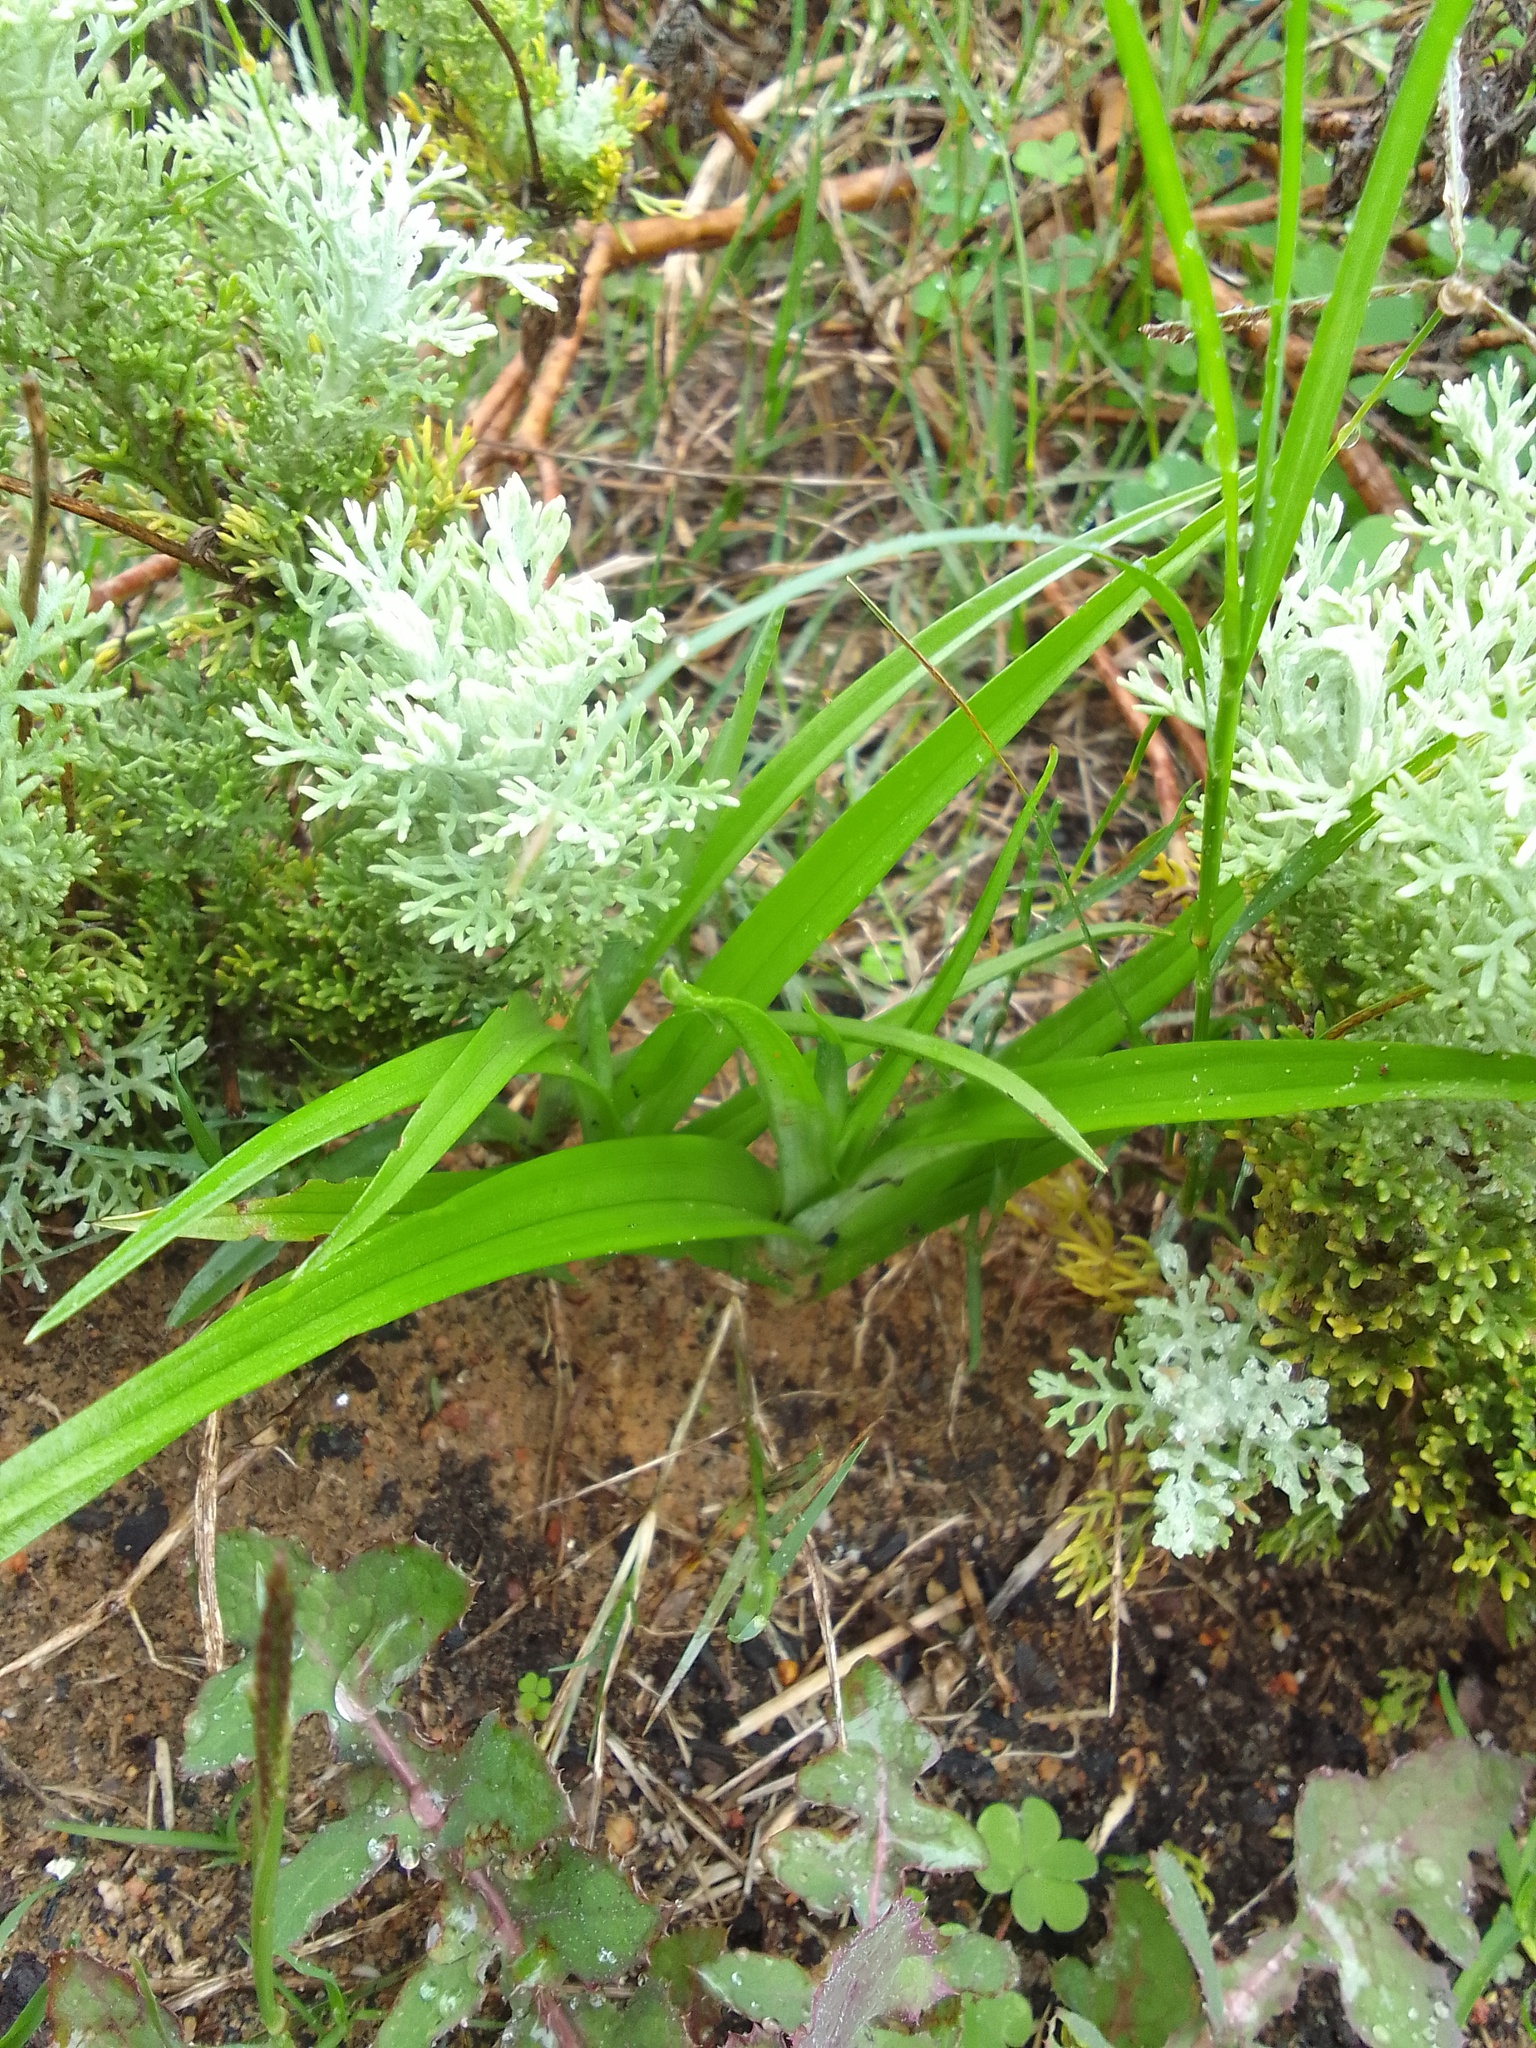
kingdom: Plantae
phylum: Tracheophyta
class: Liliopsida
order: Asparagales
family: Orchidaceae
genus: Corycium
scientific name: Corycium orobanchoides
